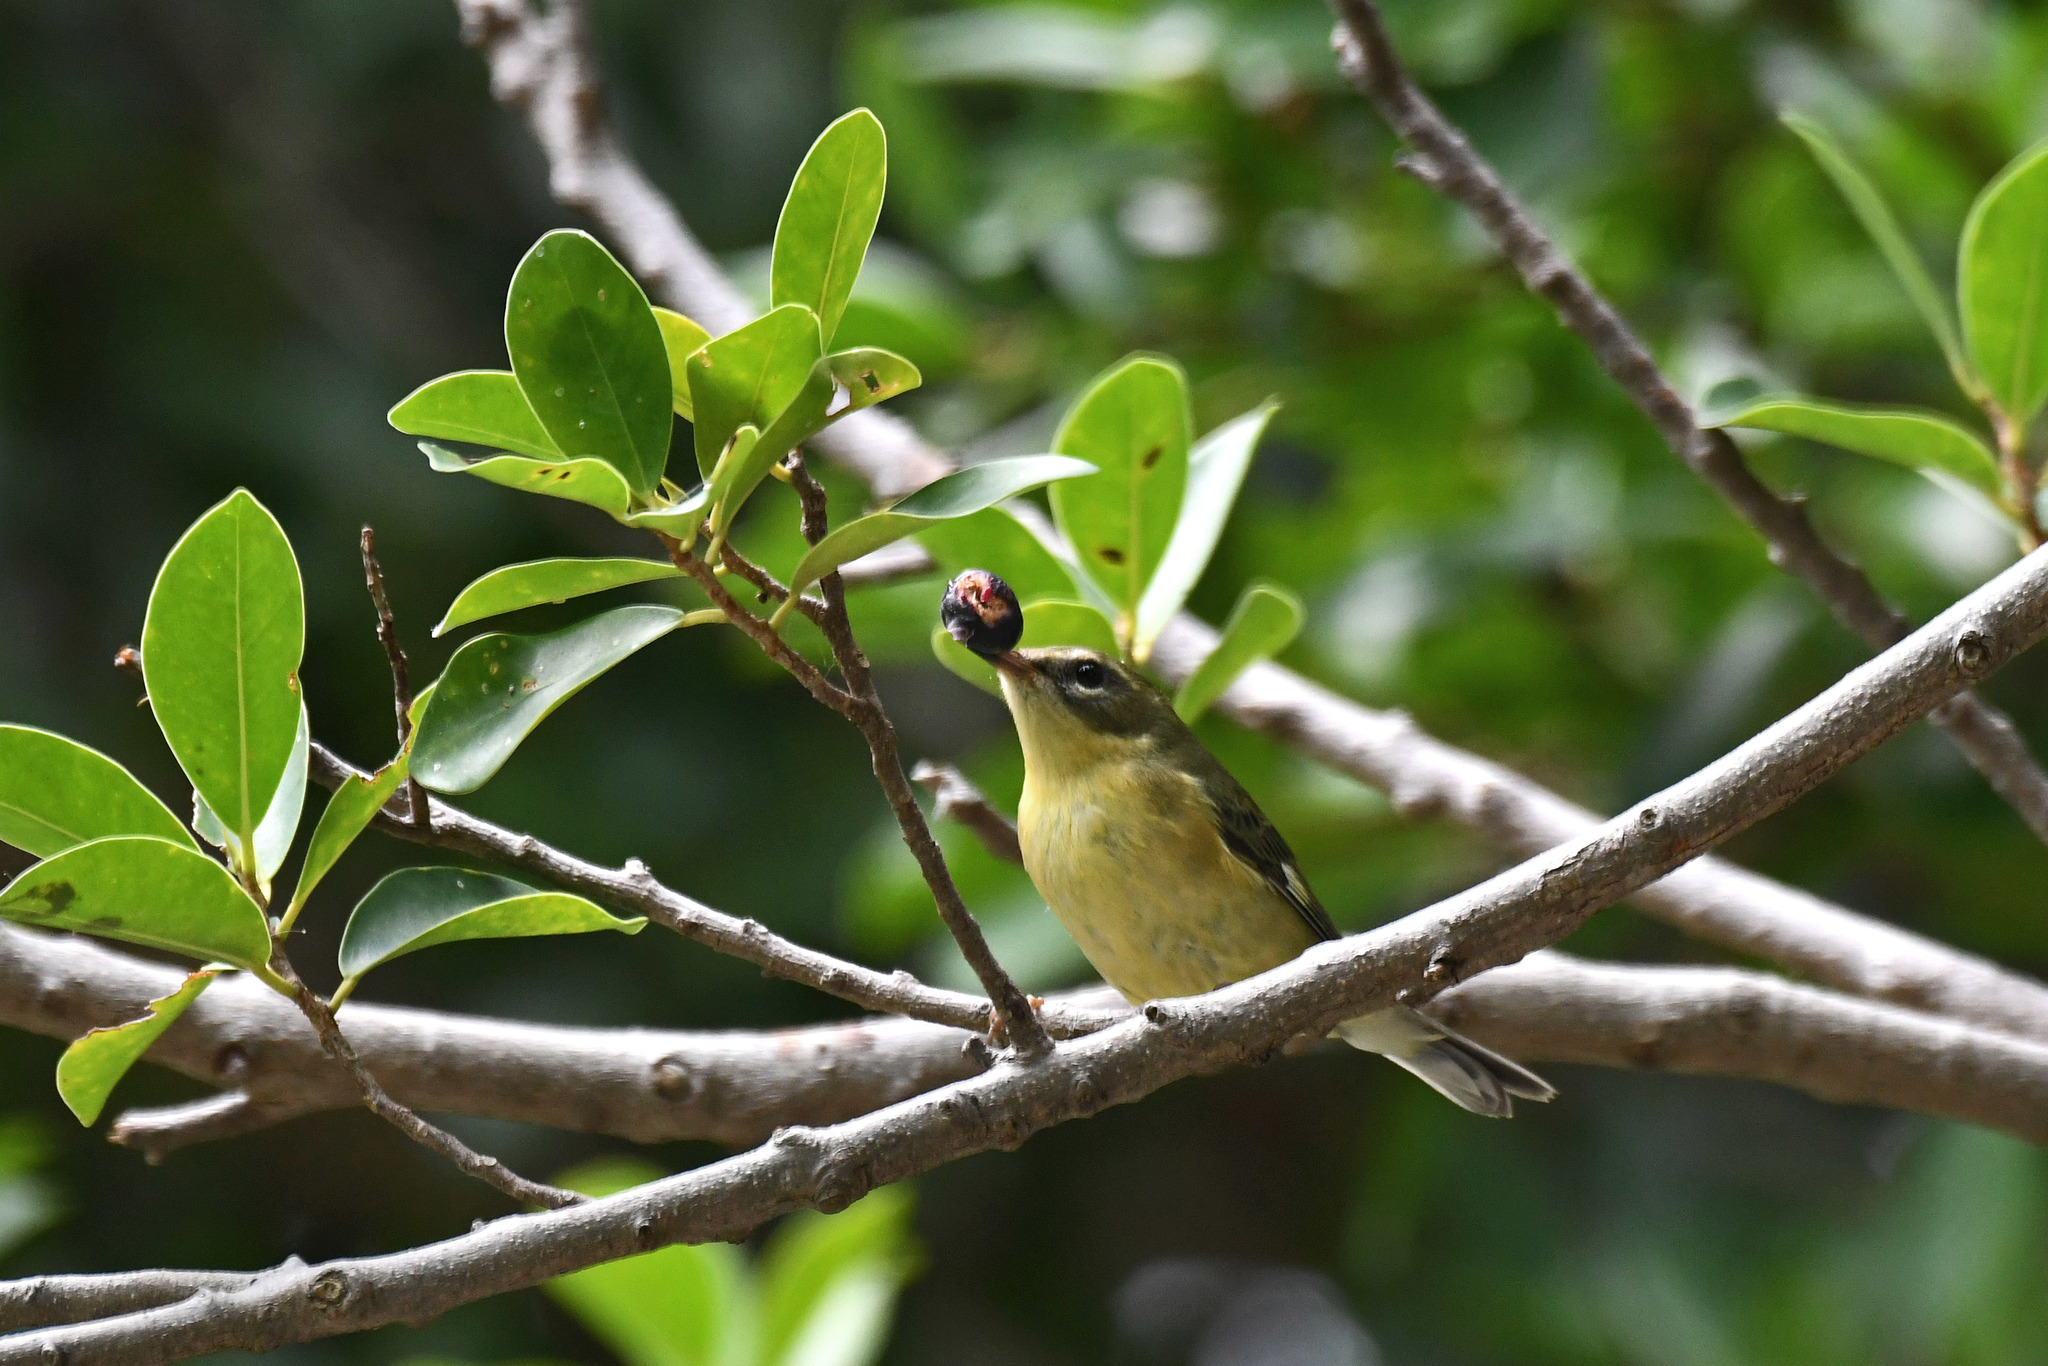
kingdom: Animalia
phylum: Chordata
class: Aves
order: Passeriformes
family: Parulidae
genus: Setophaga
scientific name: Setophaga caerulescens
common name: Black-throated blue warbler
